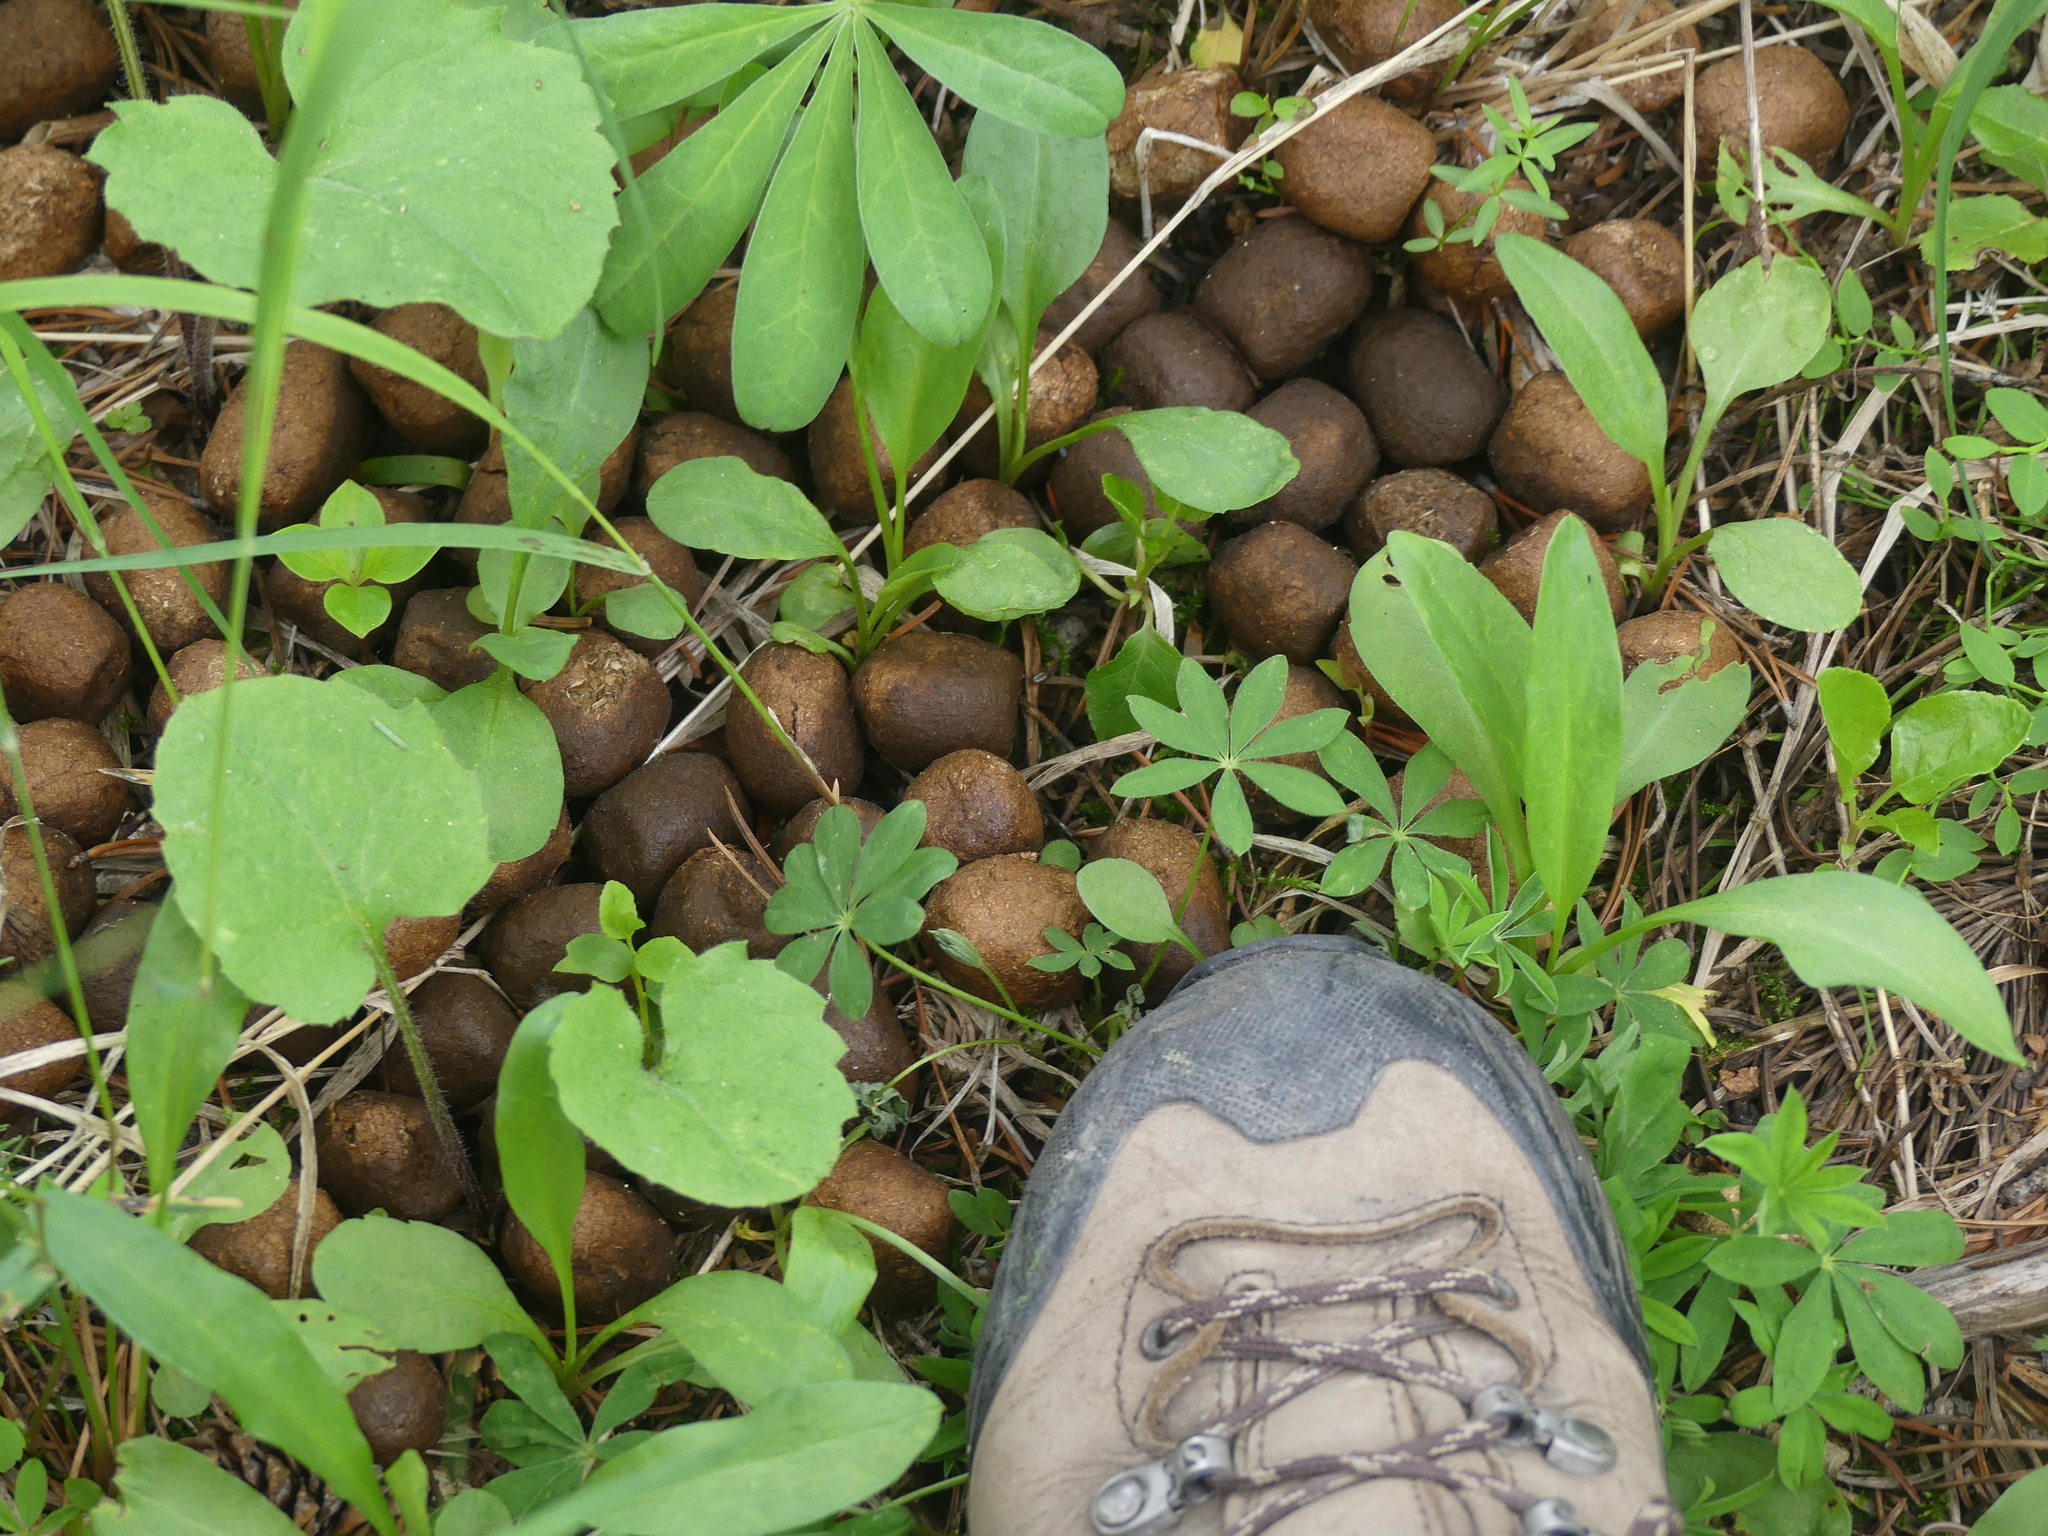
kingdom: Animalia
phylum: Chordata
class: Mammalia
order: Artiodactyla
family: Cervidae
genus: Alces
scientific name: Alces alces
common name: Moose
